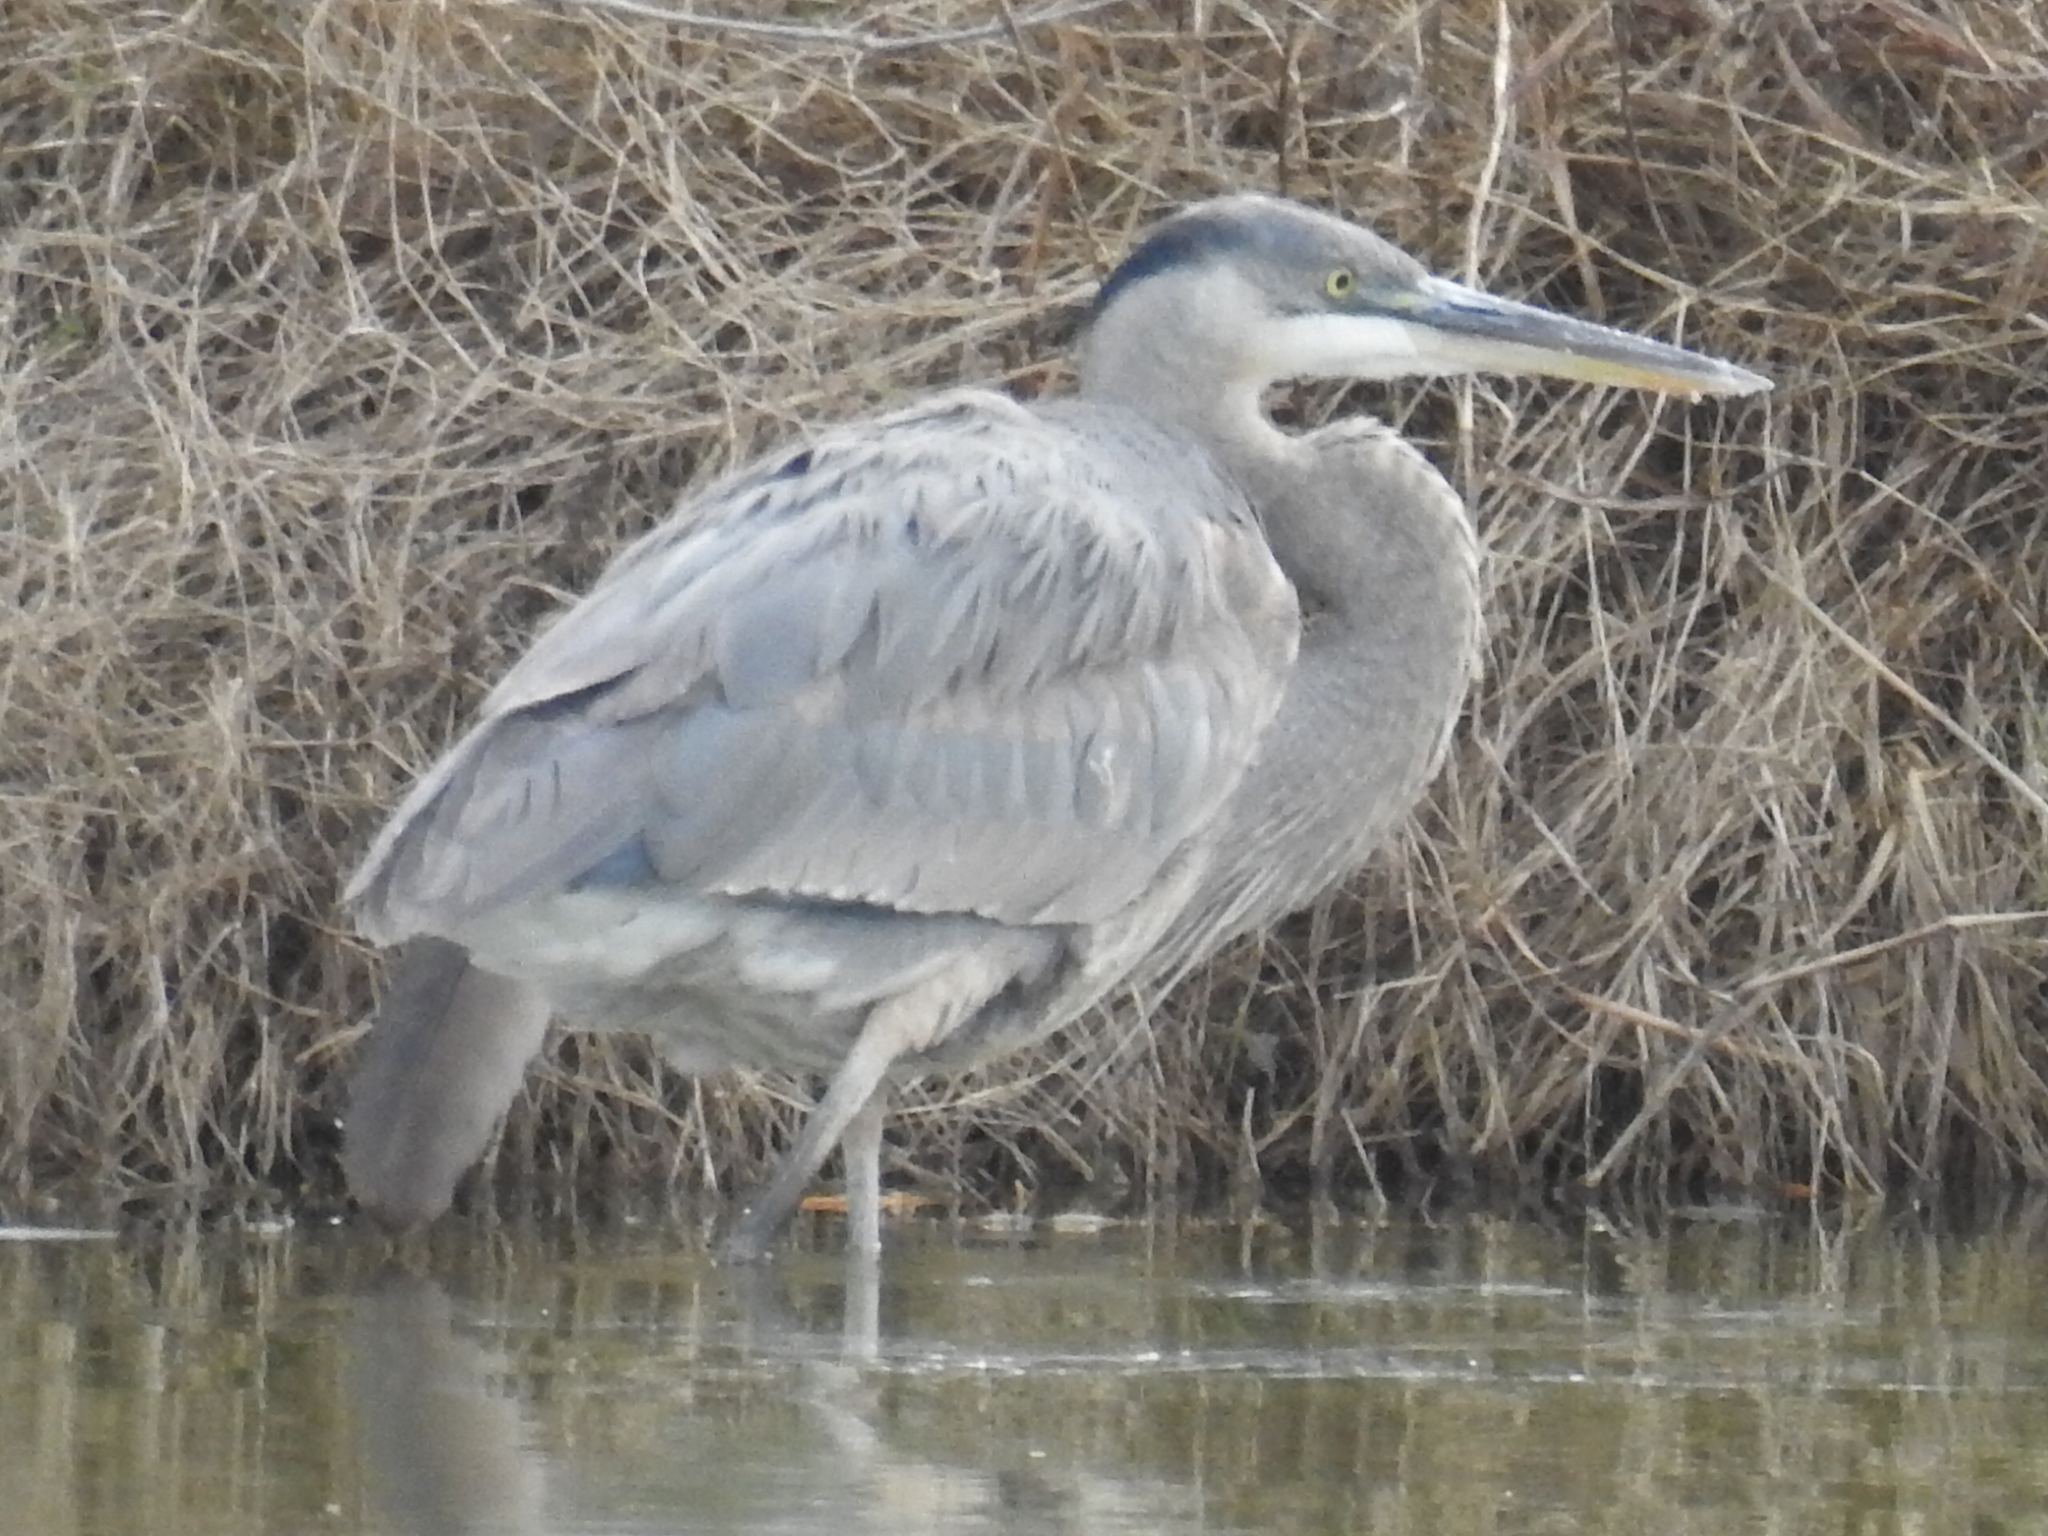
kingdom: Animalia
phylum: Chordata
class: Aves
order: Pelecaniformes
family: Ardeidae
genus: Ardea
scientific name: Ardea herodias
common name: Great blue heron
